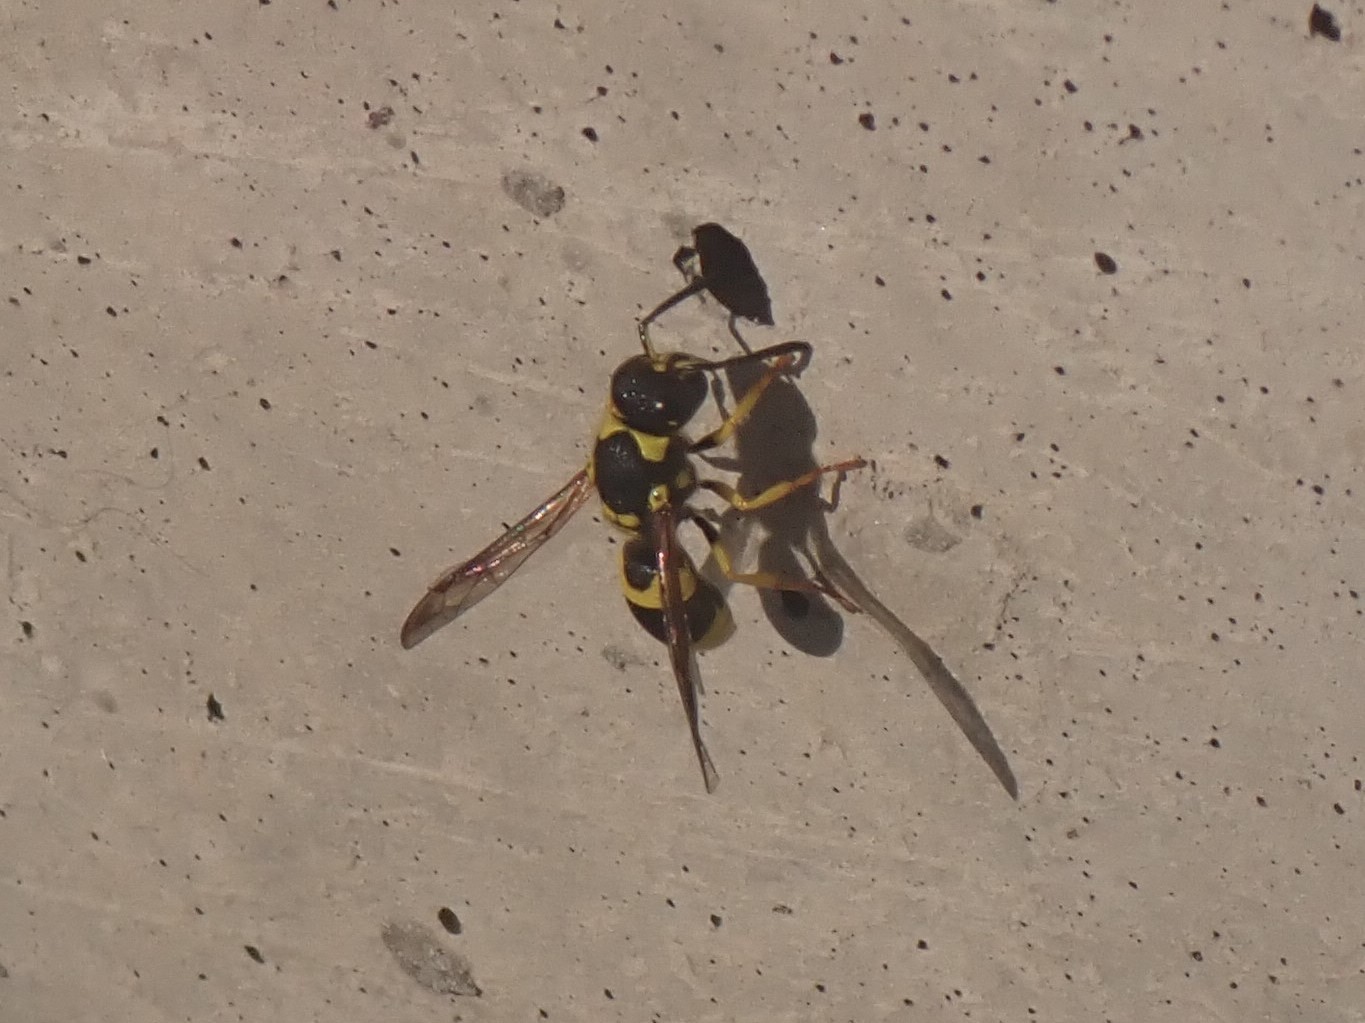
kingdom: Animalia
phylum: Arthropoda
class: Insecta
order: Hymenoptera
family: Vespidae
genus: Ancistrocerus
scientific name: Ancistrocerus gazella
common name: European tube wasp
